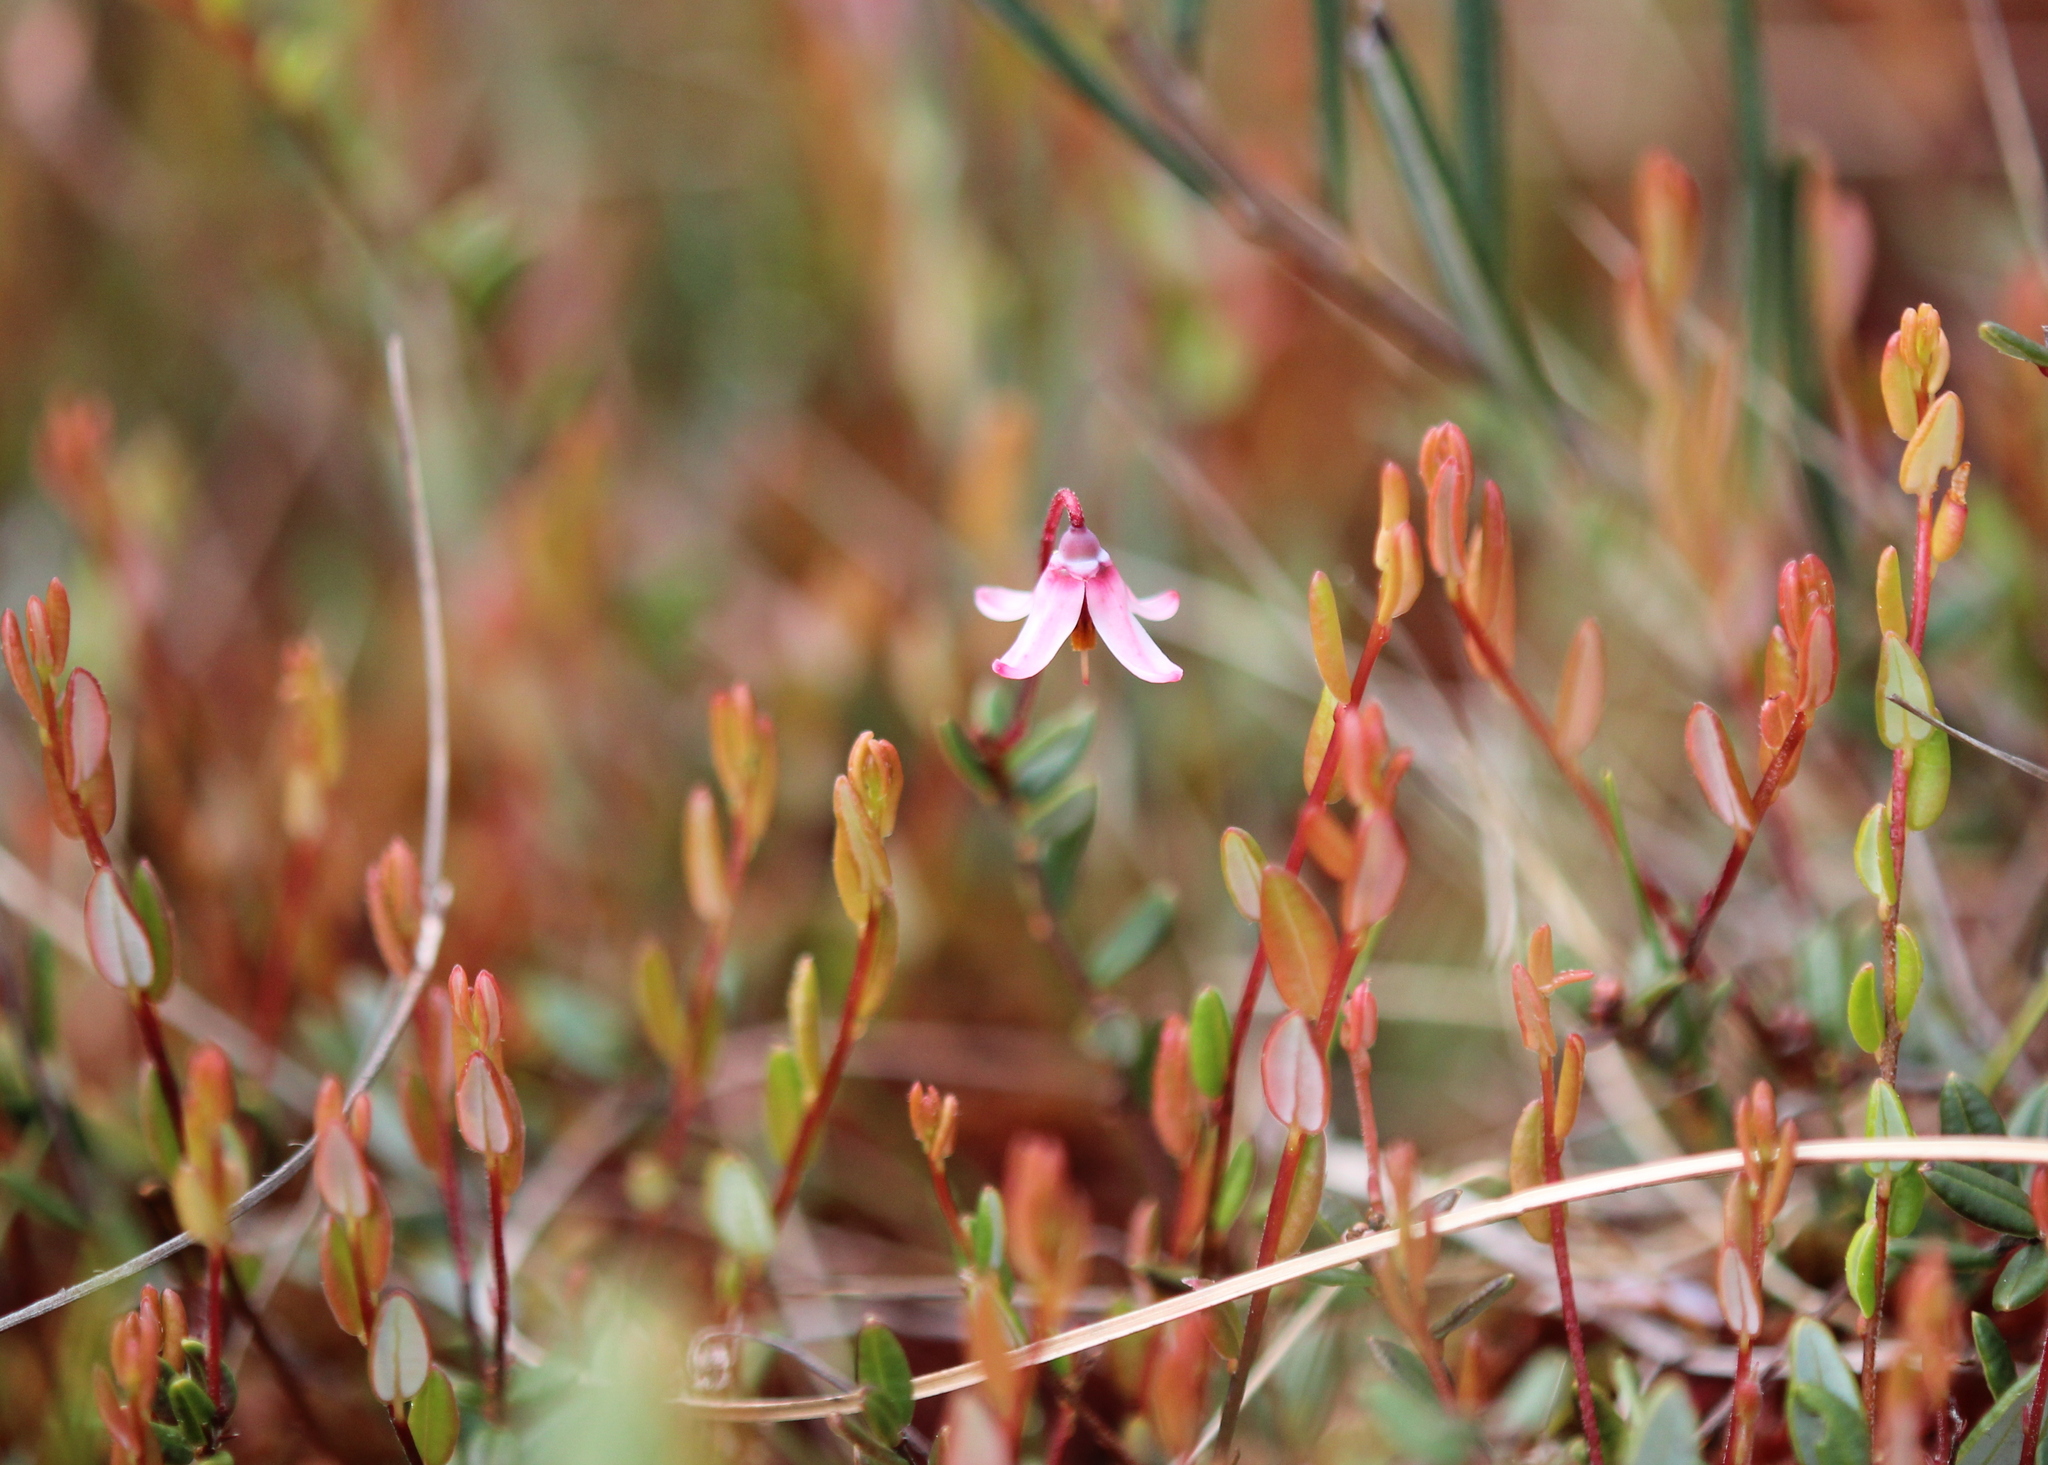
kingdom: Plantae
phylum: Tracheophyta
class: Magnoliopsida
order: Ericales
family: Ericaceae
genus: Vaccinium
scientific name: Vaccinium oxycoccos
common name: Cranberry
